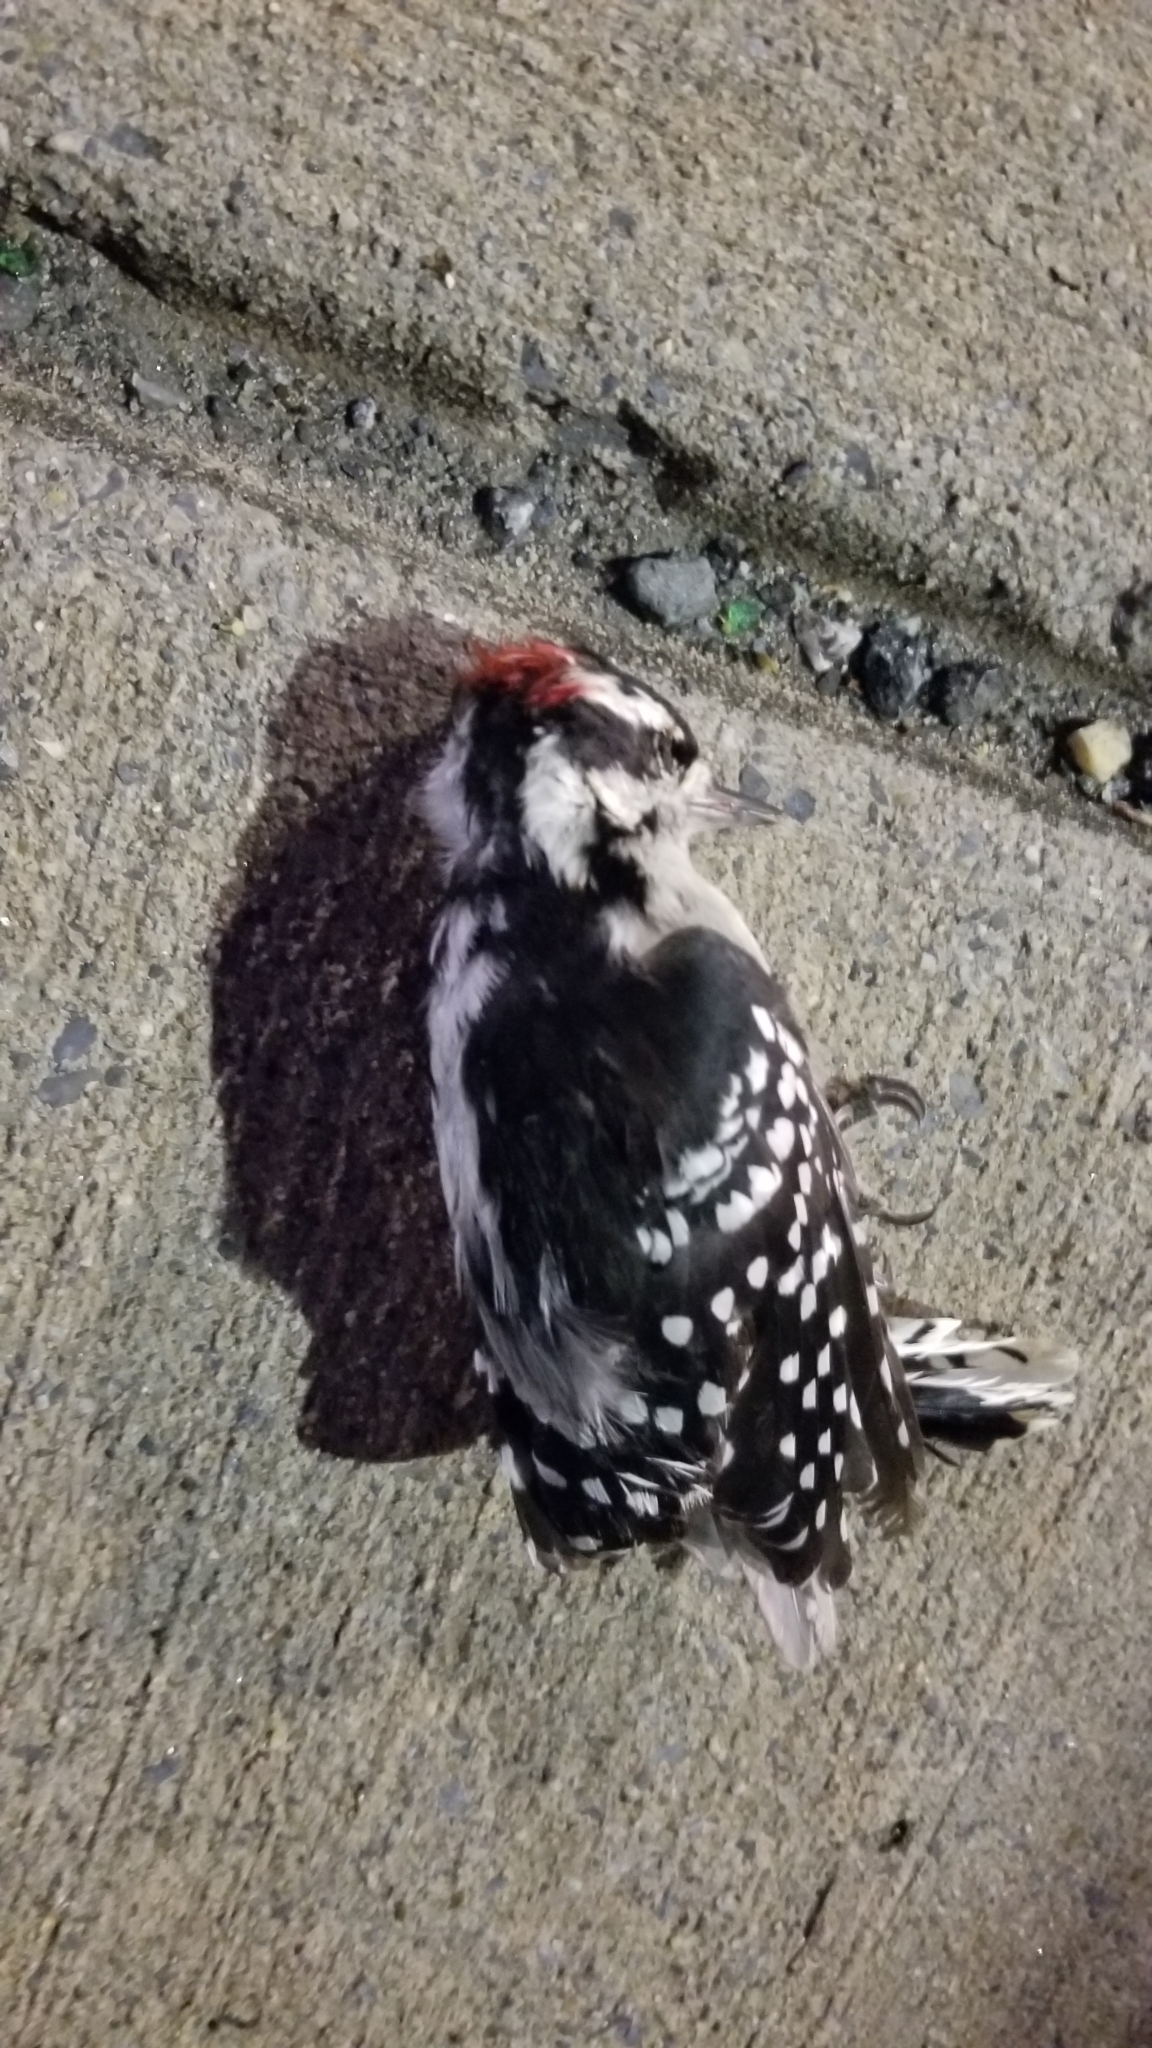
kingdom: Animalia
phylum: Chordata
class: Aves
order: Piciformes
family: Picidae
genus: Dryobates
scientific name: Dryobates pubescens
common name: Downy woodpecker
